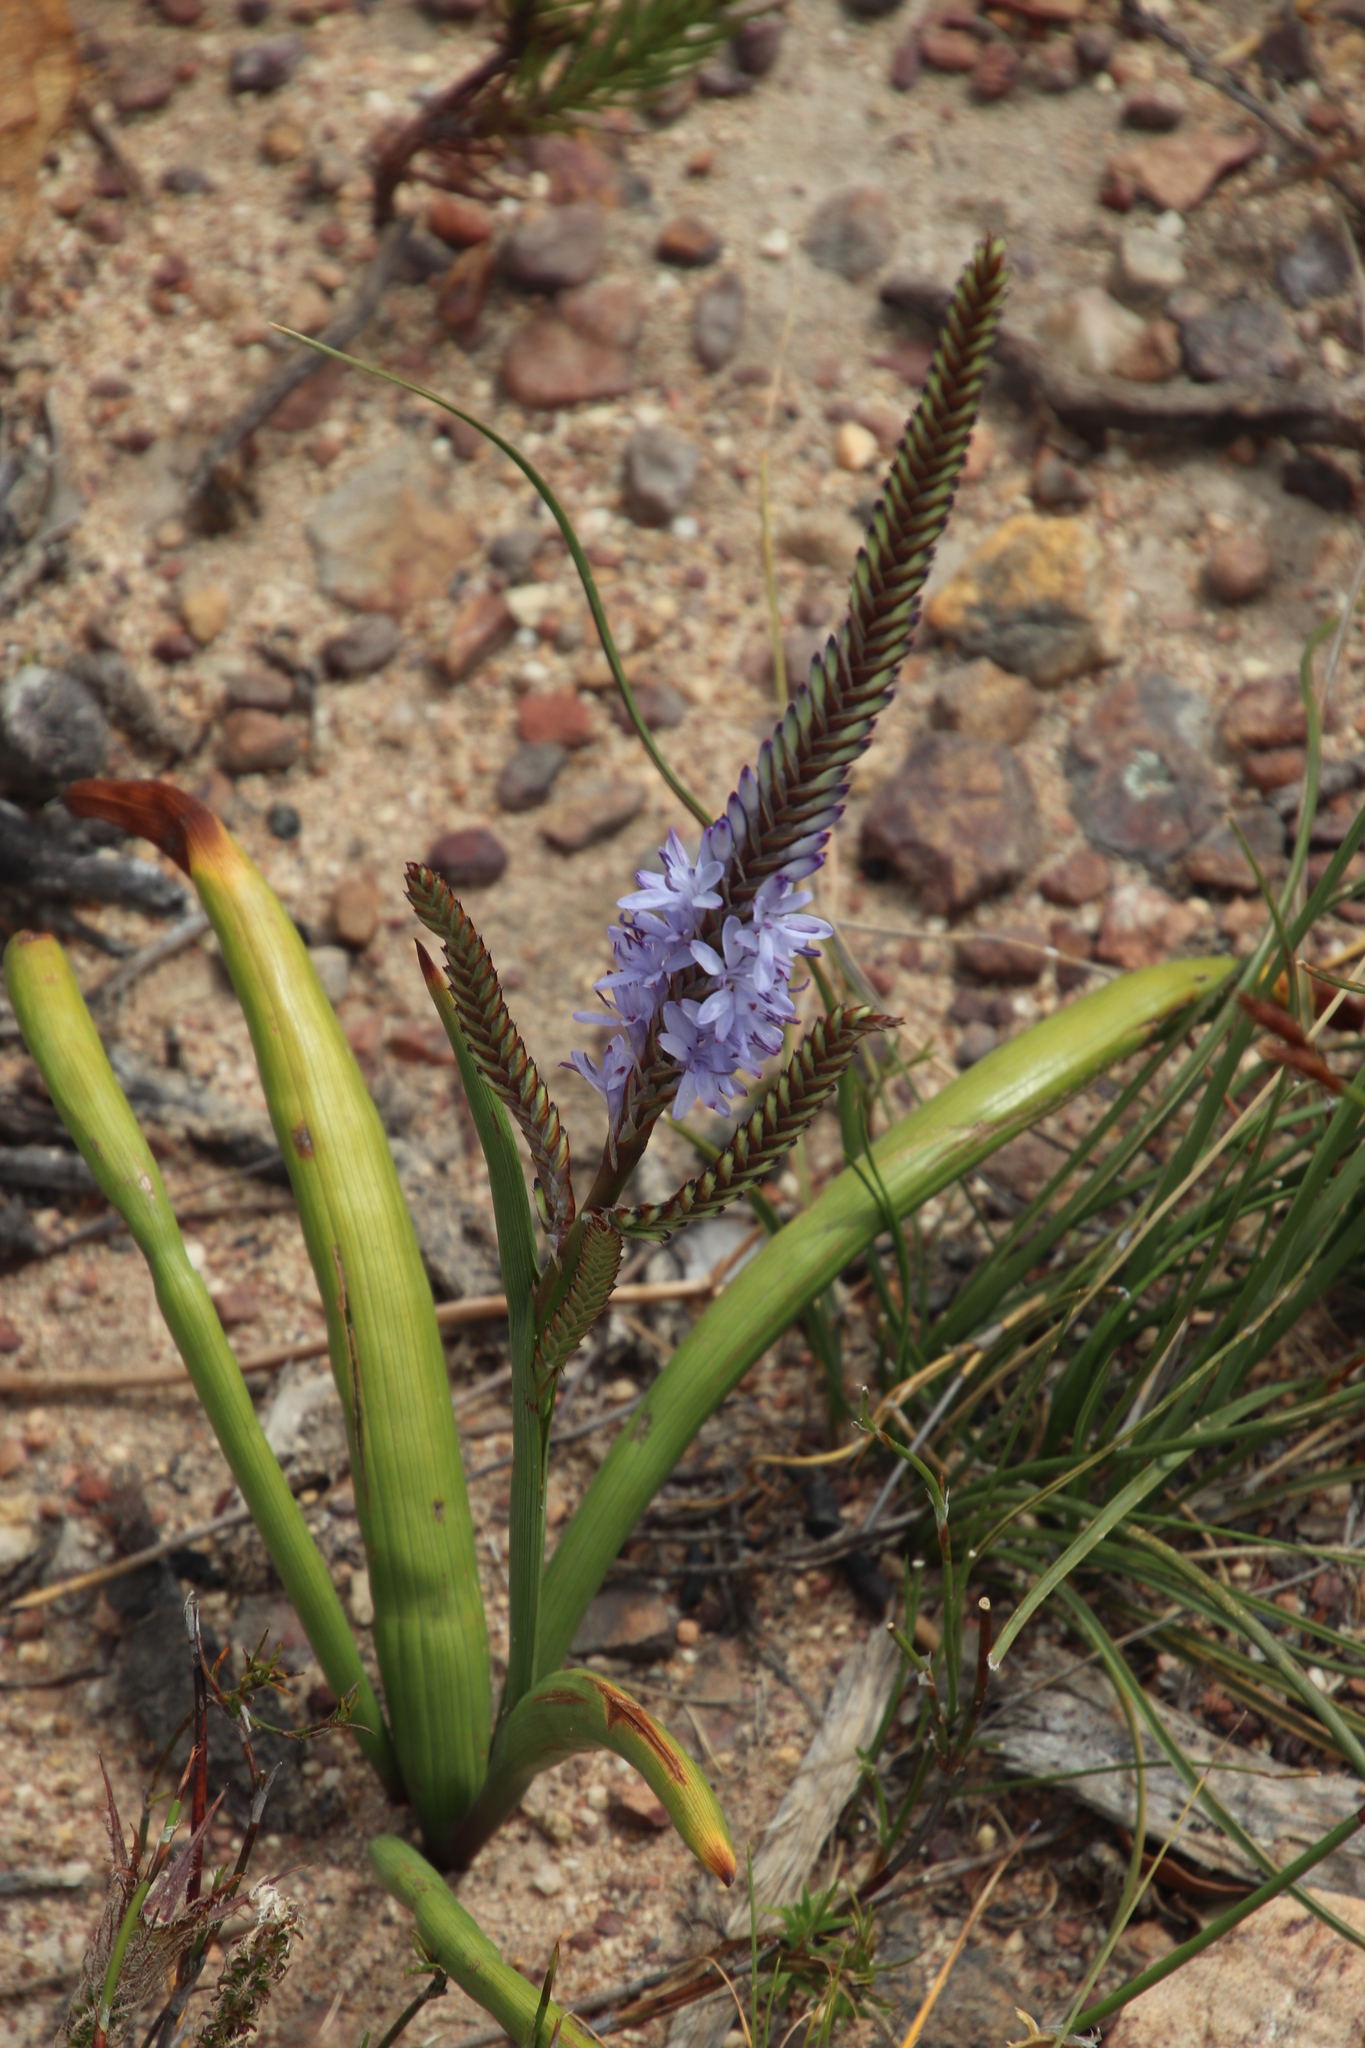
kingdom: Plantae
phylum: Tracheophyta
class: Liliopsida
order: Asparagales
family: Iridaceae
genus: Micranthus
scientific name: Micranthus tubulosus
